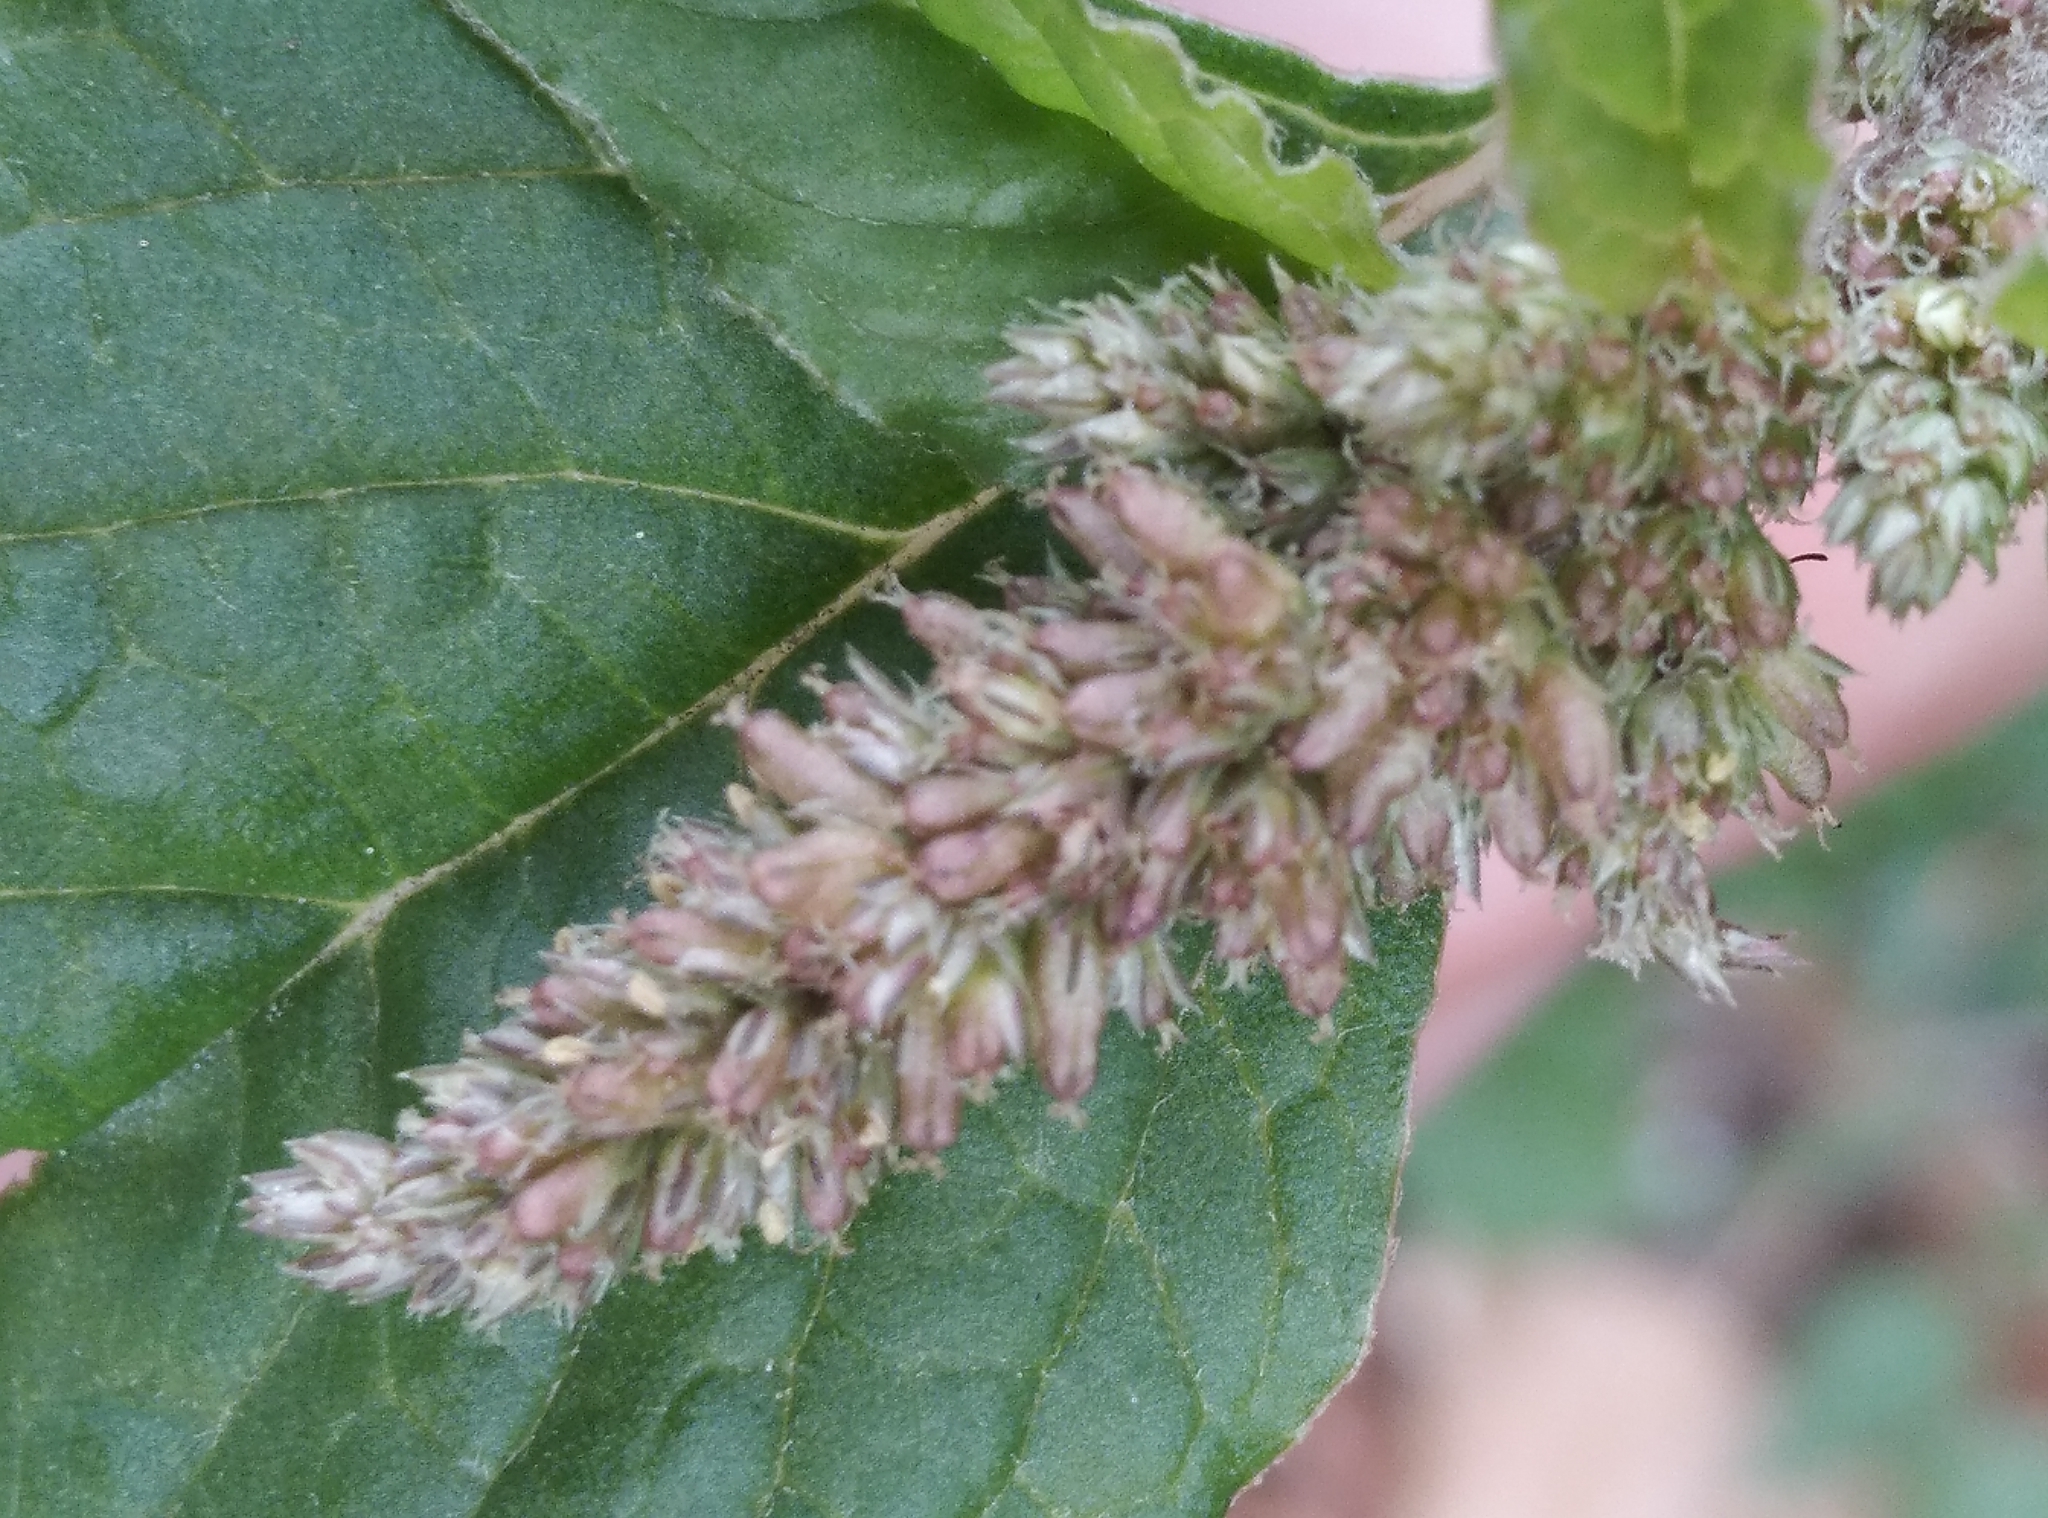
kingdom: Plantae
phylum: Tracheophyta
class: Magnoliopsida
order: Caryophyllales
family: Amaranthaceae
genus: Amaranthus
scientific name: Amaranthus deflexus
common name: Perennial pigweed
